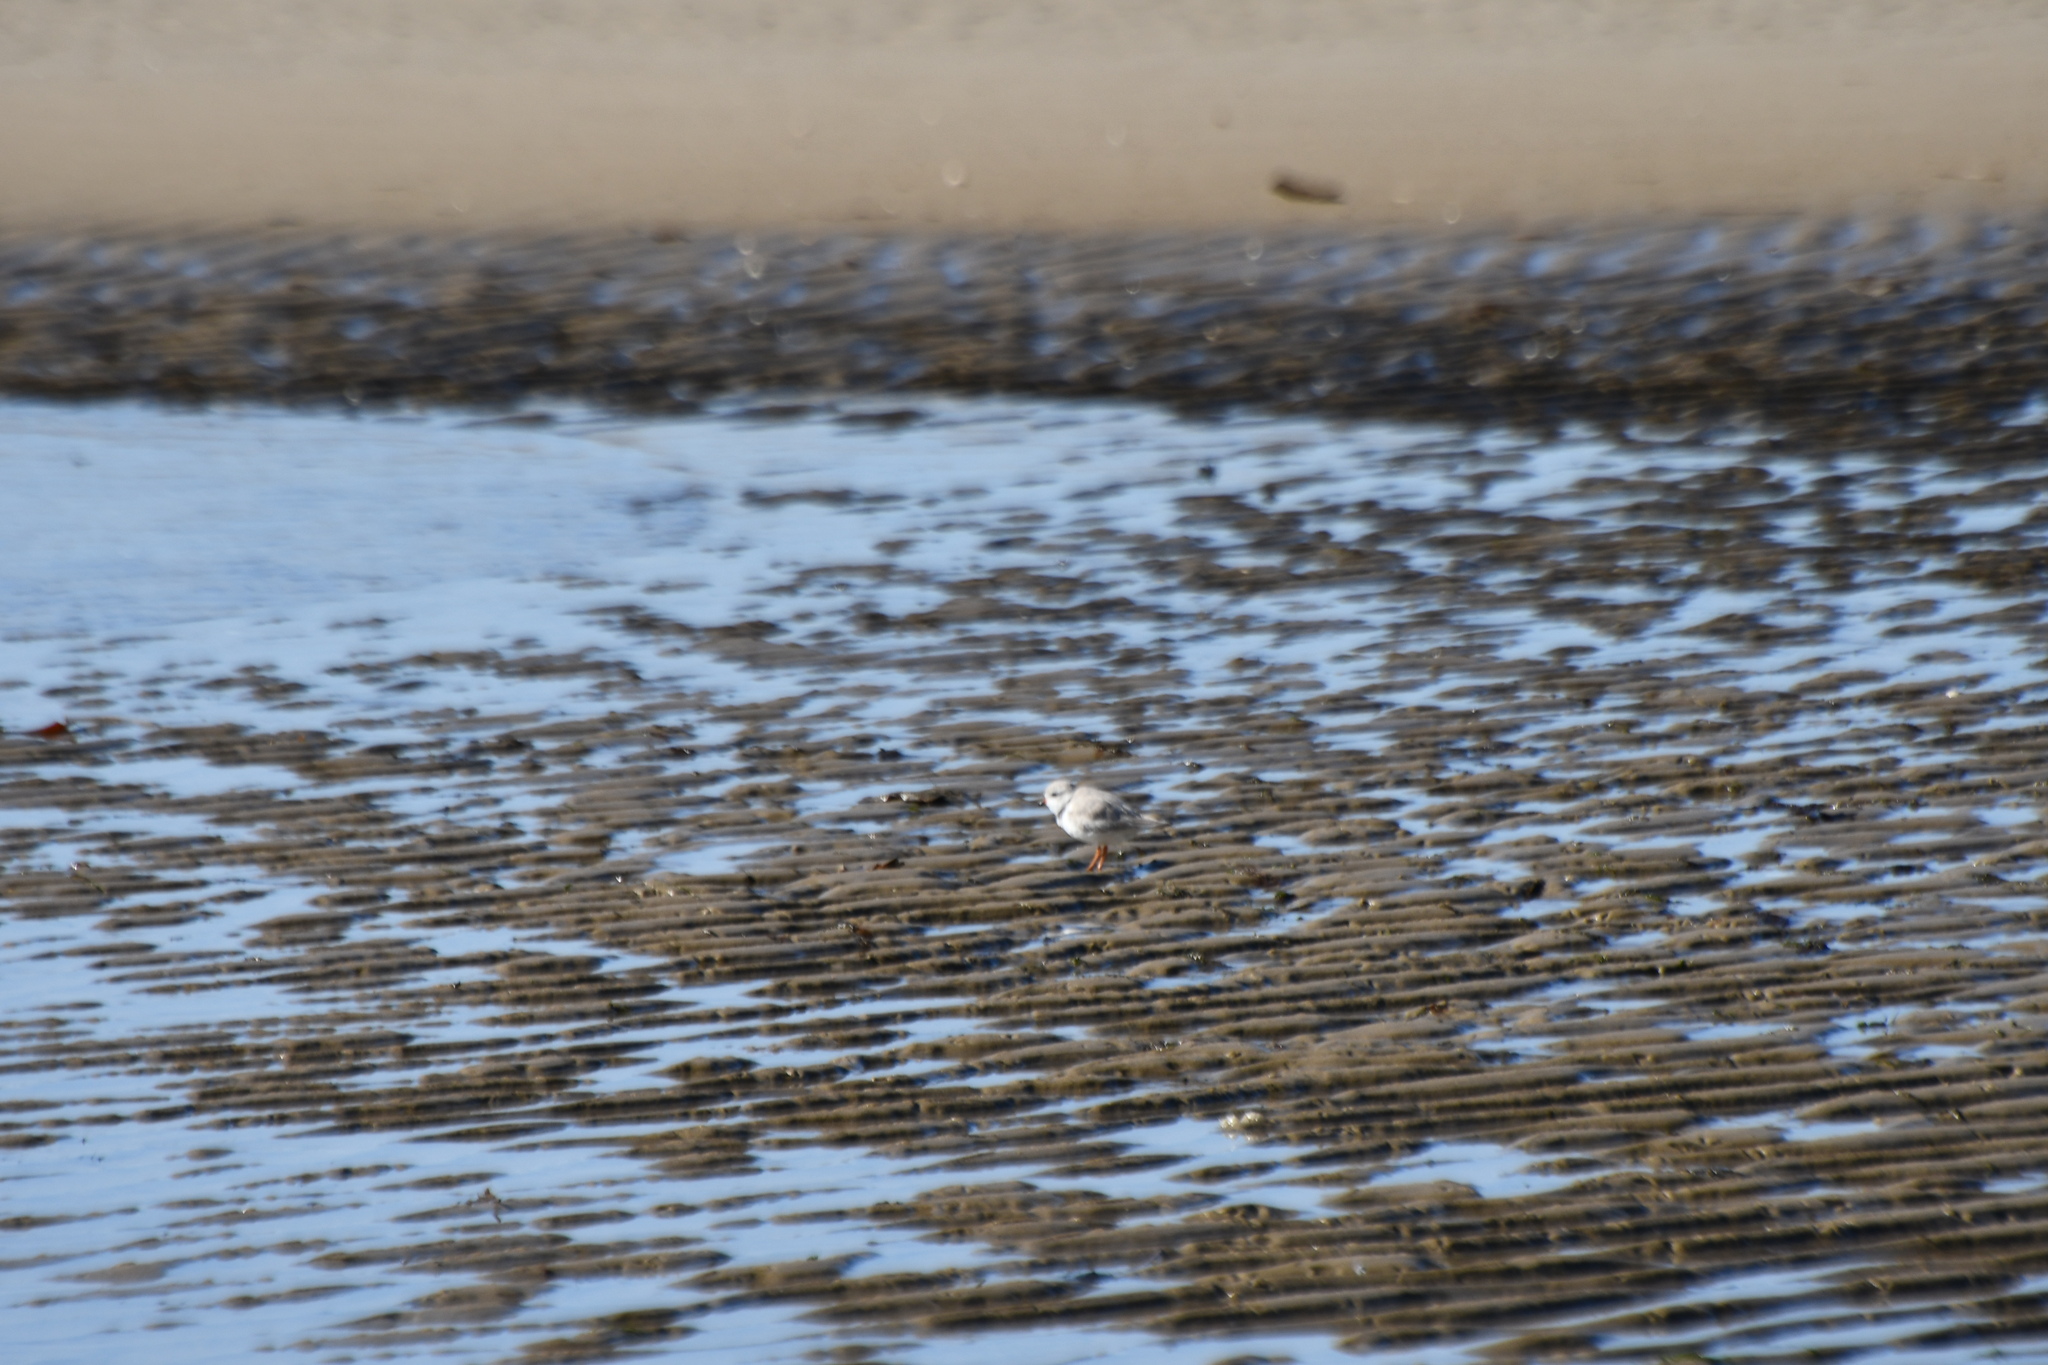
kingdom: Animalia
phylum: Chordata
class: Aves
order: Charadriiformes
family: Charadriidae
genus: Charadrius
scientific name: Charadrius melodus
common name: Piping plover
